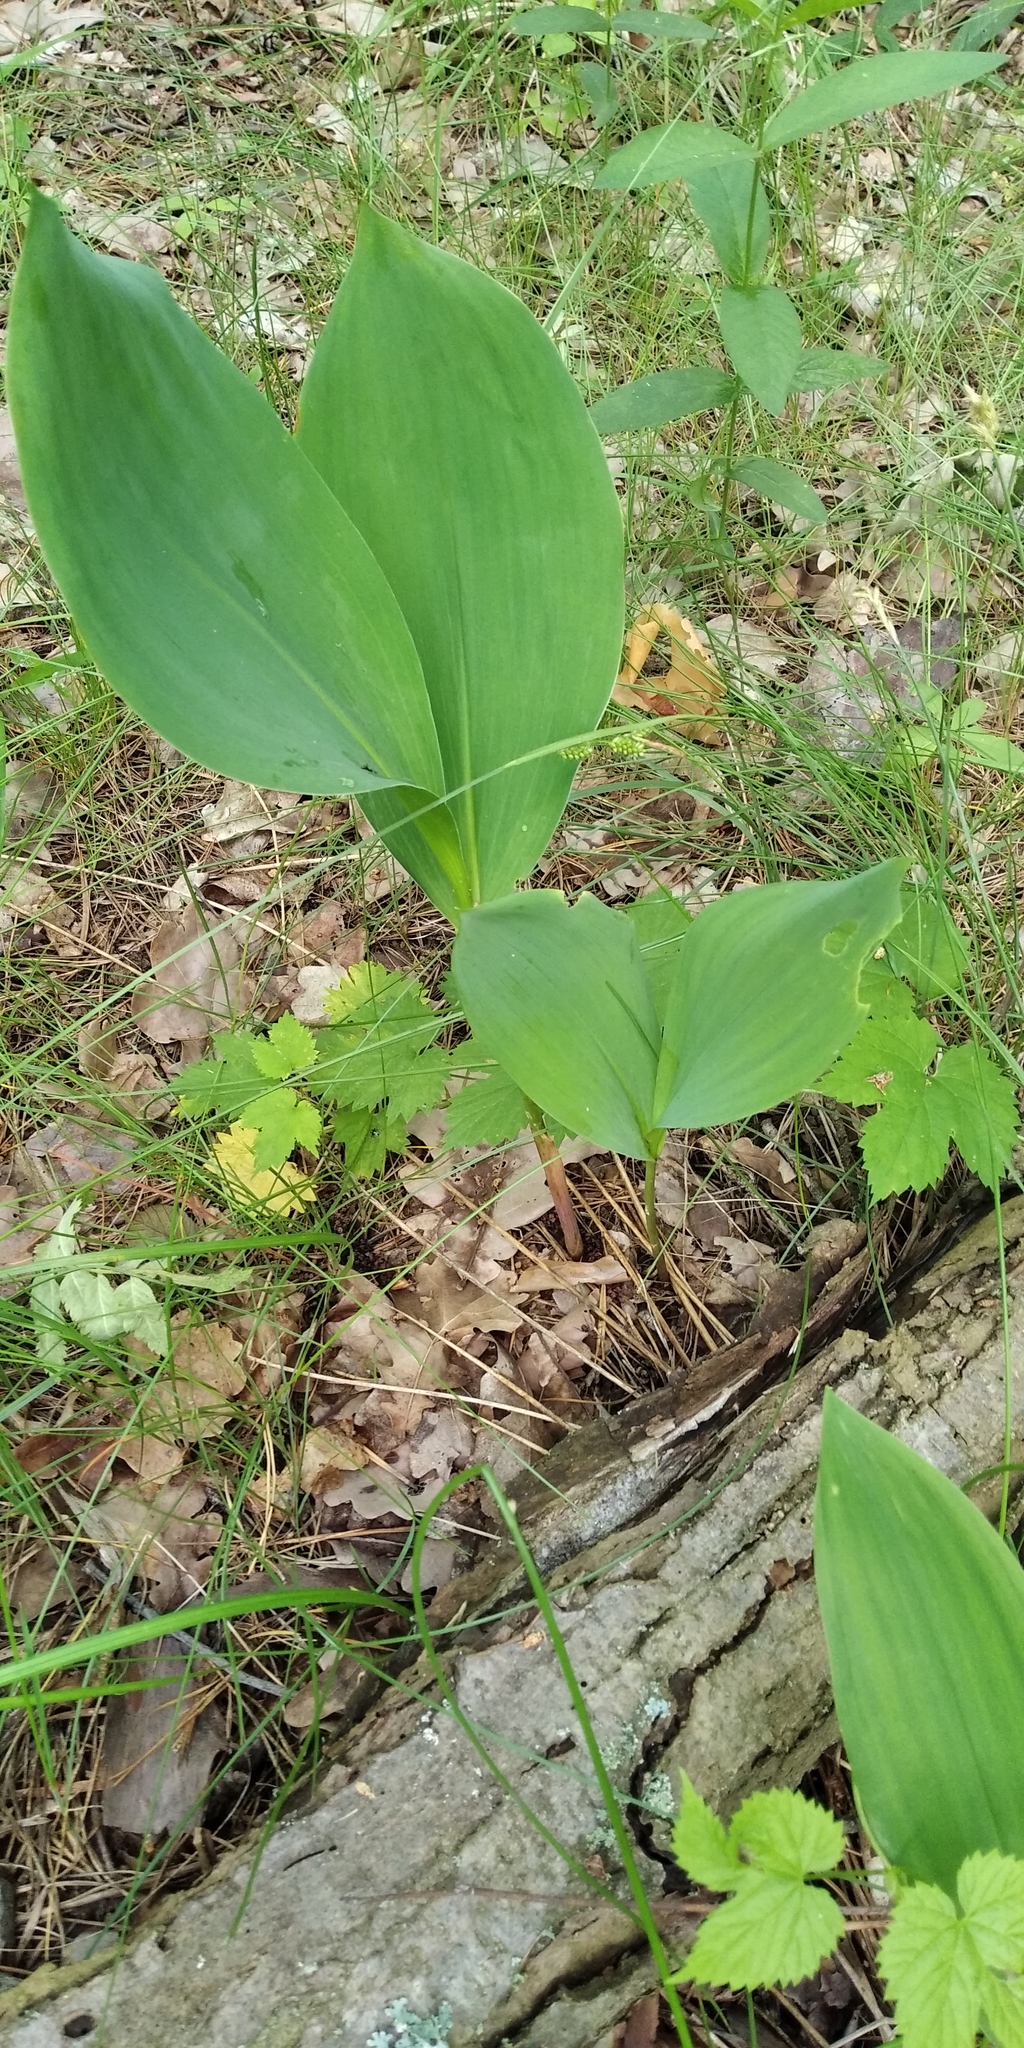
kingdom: Plantae
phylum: Tracheophyta
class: Liliopsida
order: Asparagales
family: Asparagaceae
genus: Convallaria
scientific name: Convallaria majalis
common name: Lily-of-the-valley
